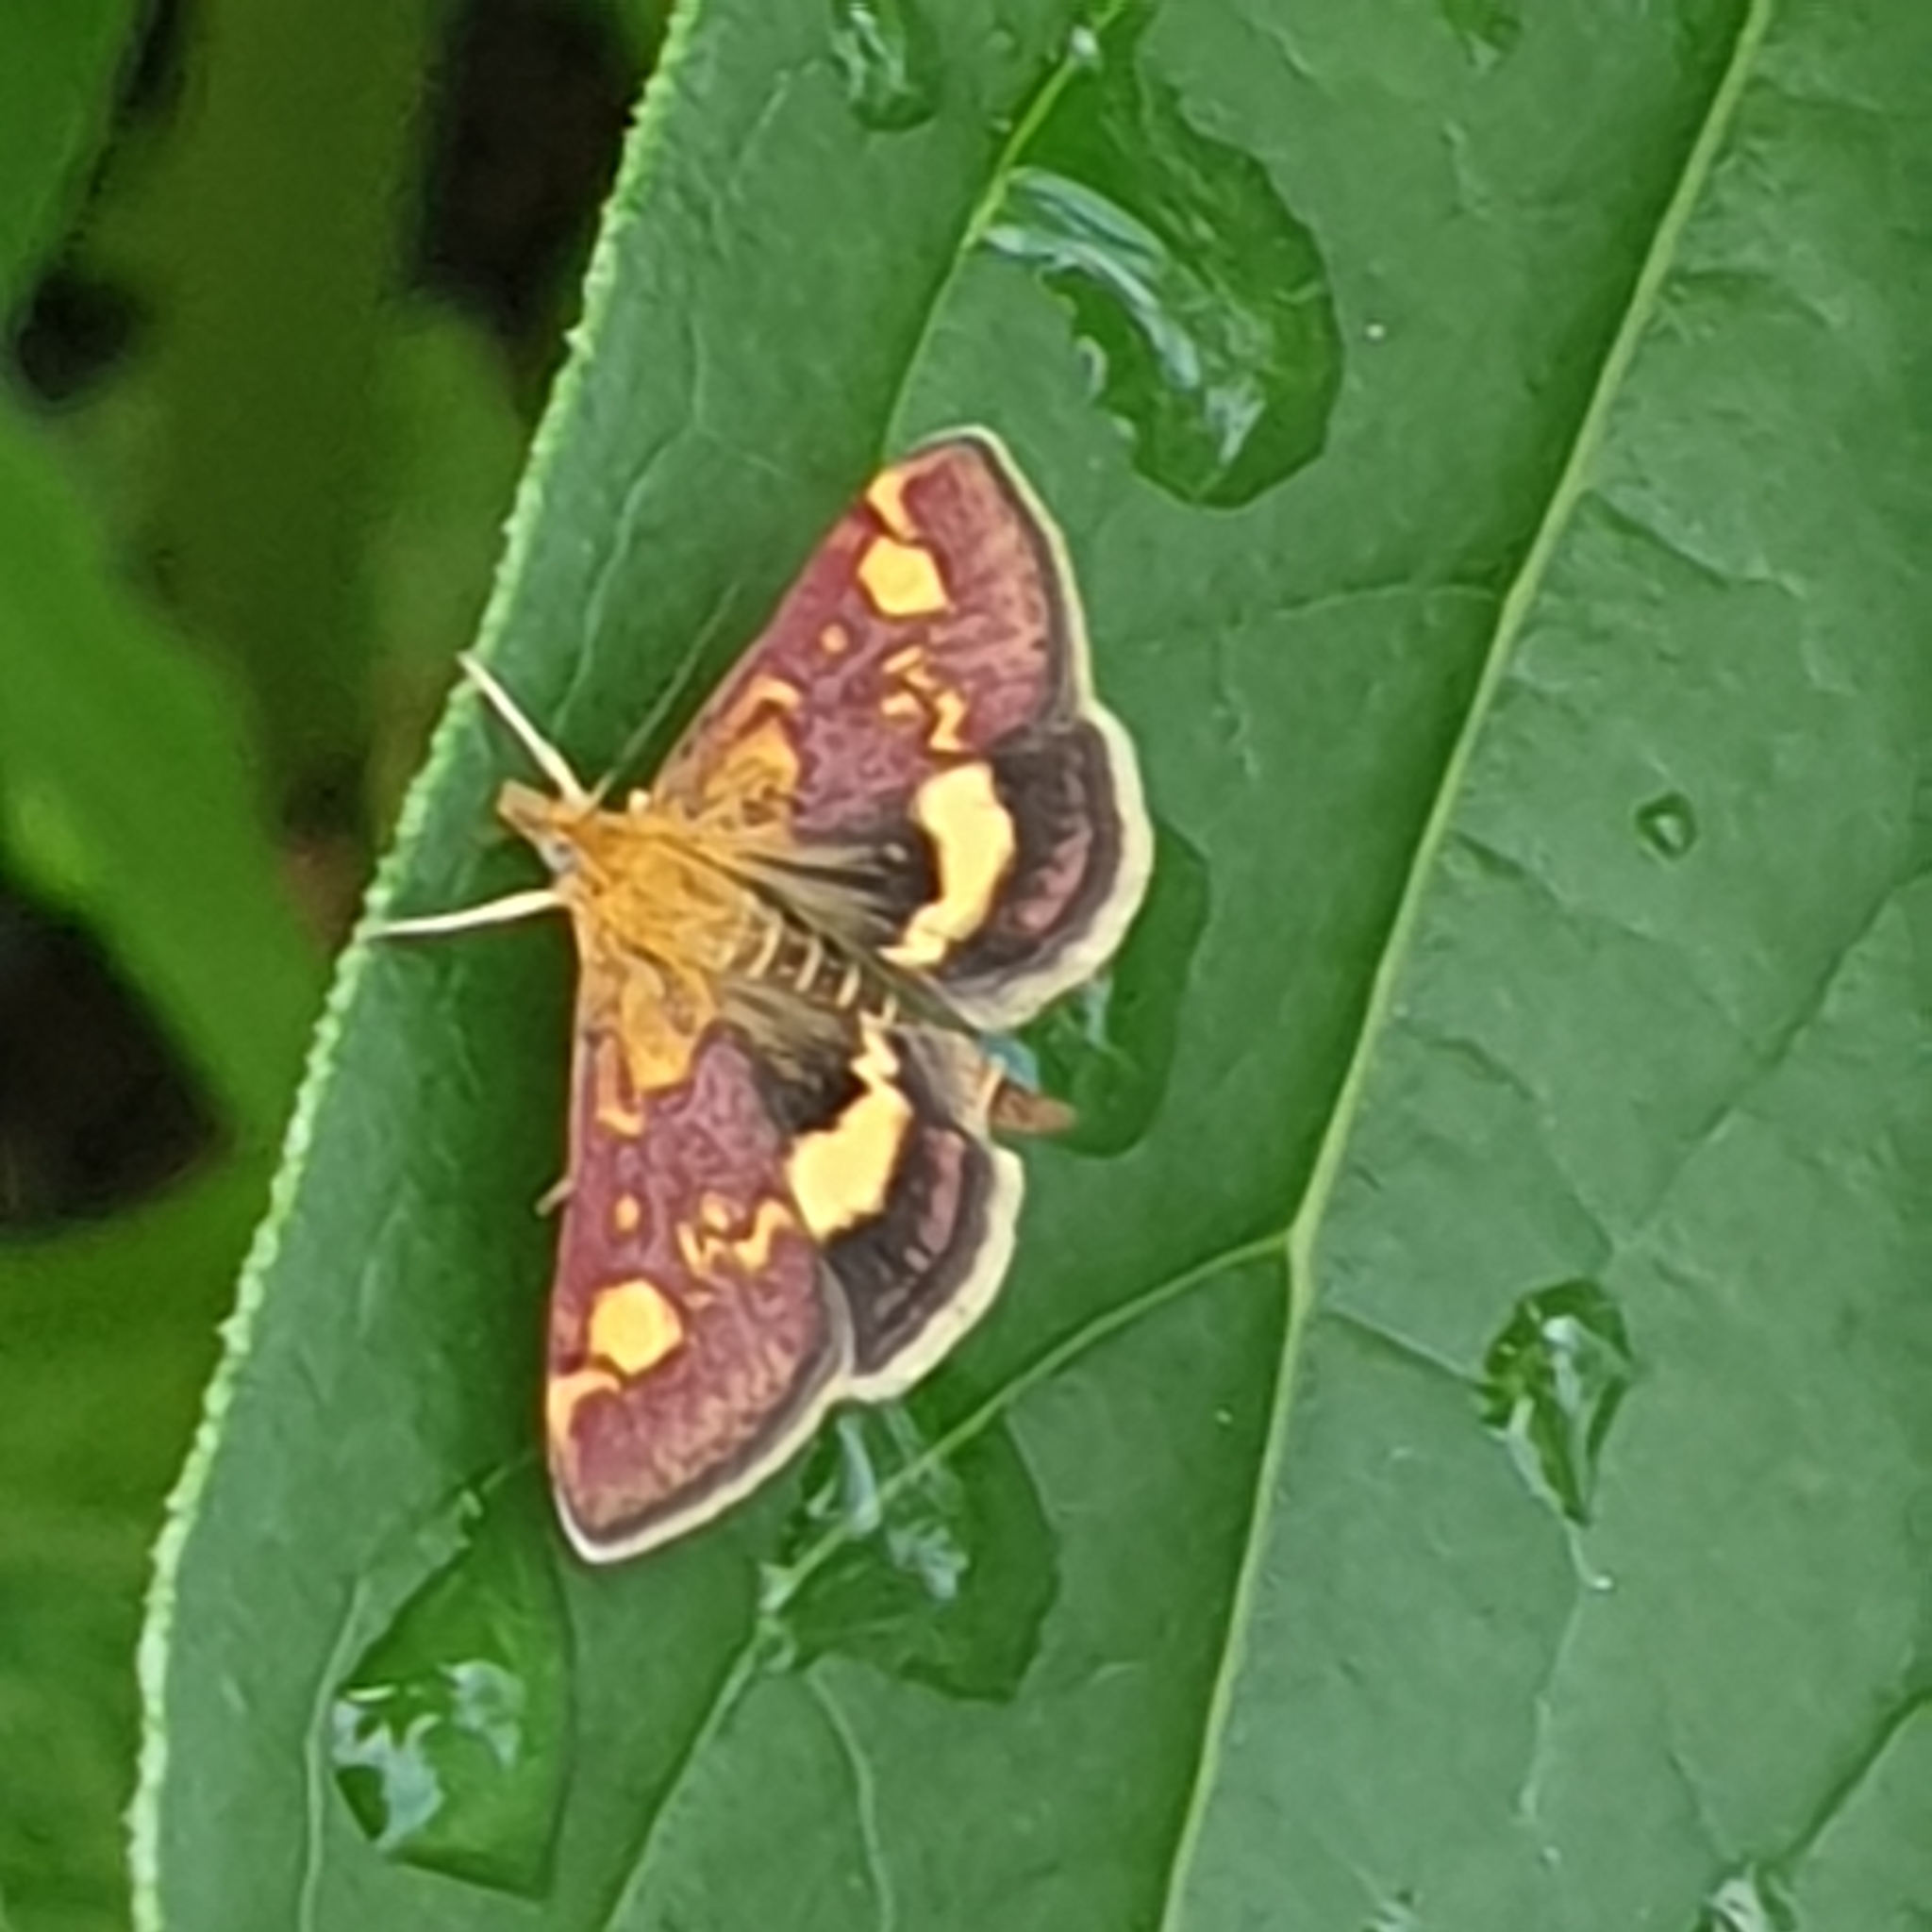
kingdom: Animalia
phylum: Arthropoda
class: Insecta
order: Lepidoptera
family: Crambidae
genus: Pyrausta
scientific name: Pyrausta aurata
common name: Small purple & gold
